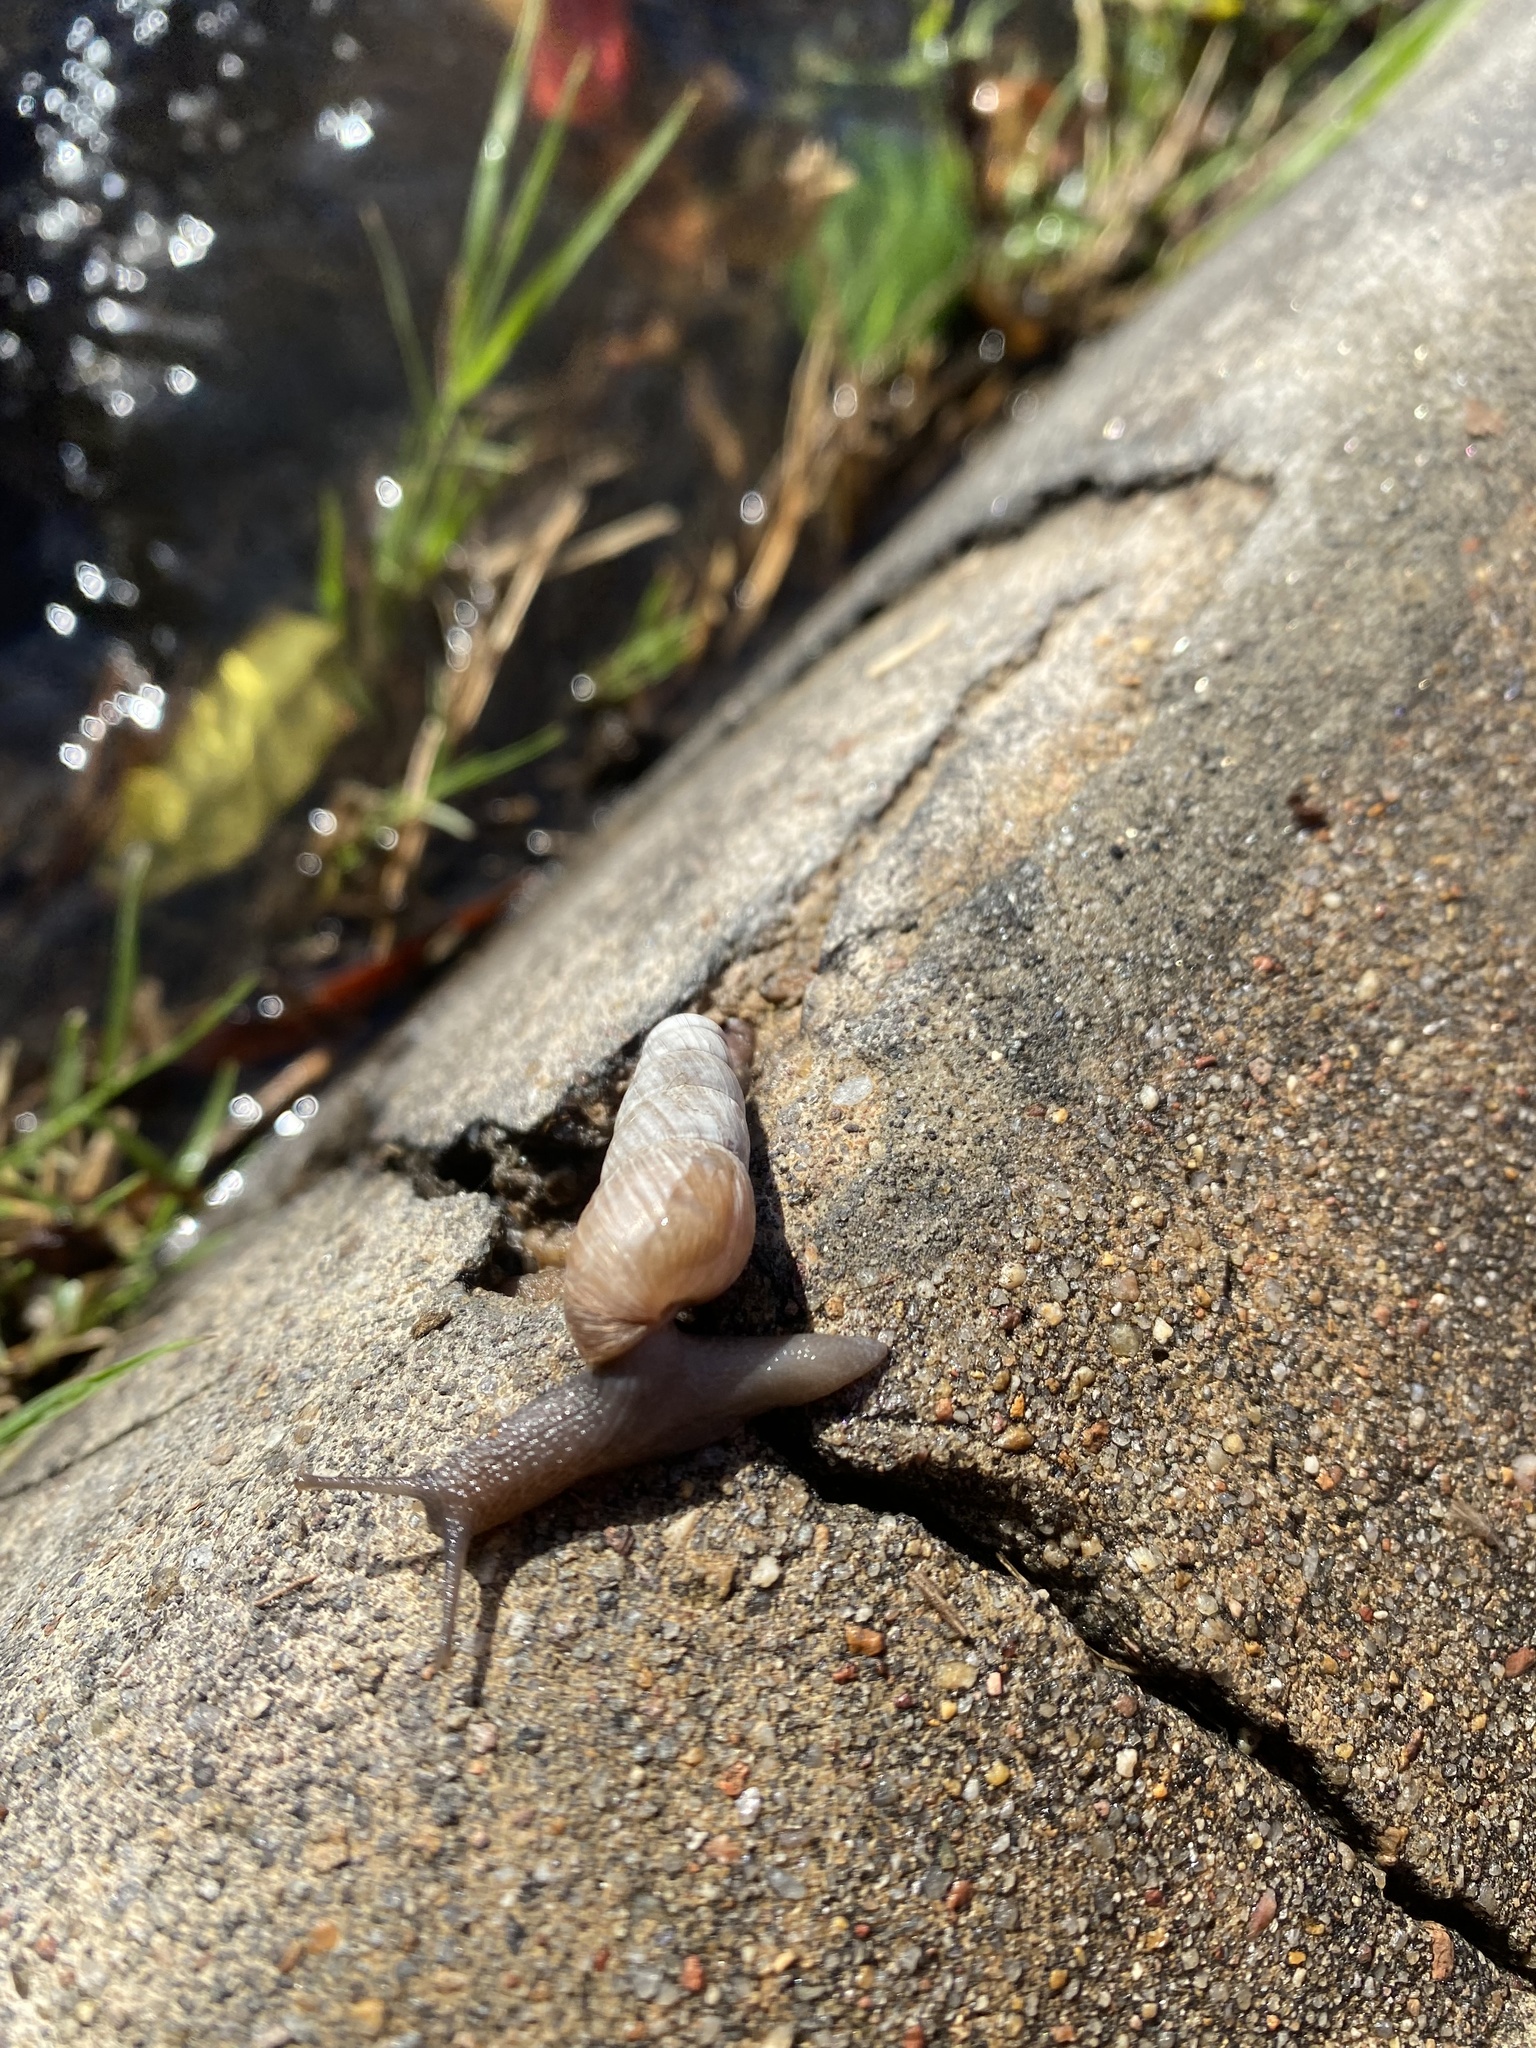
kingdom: Animalia
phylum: Mollusca
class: Gastropoda
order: Stylommatophora
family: Achatinidae
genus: Rumina
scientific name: Rumina decollata
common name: Decollate snail
